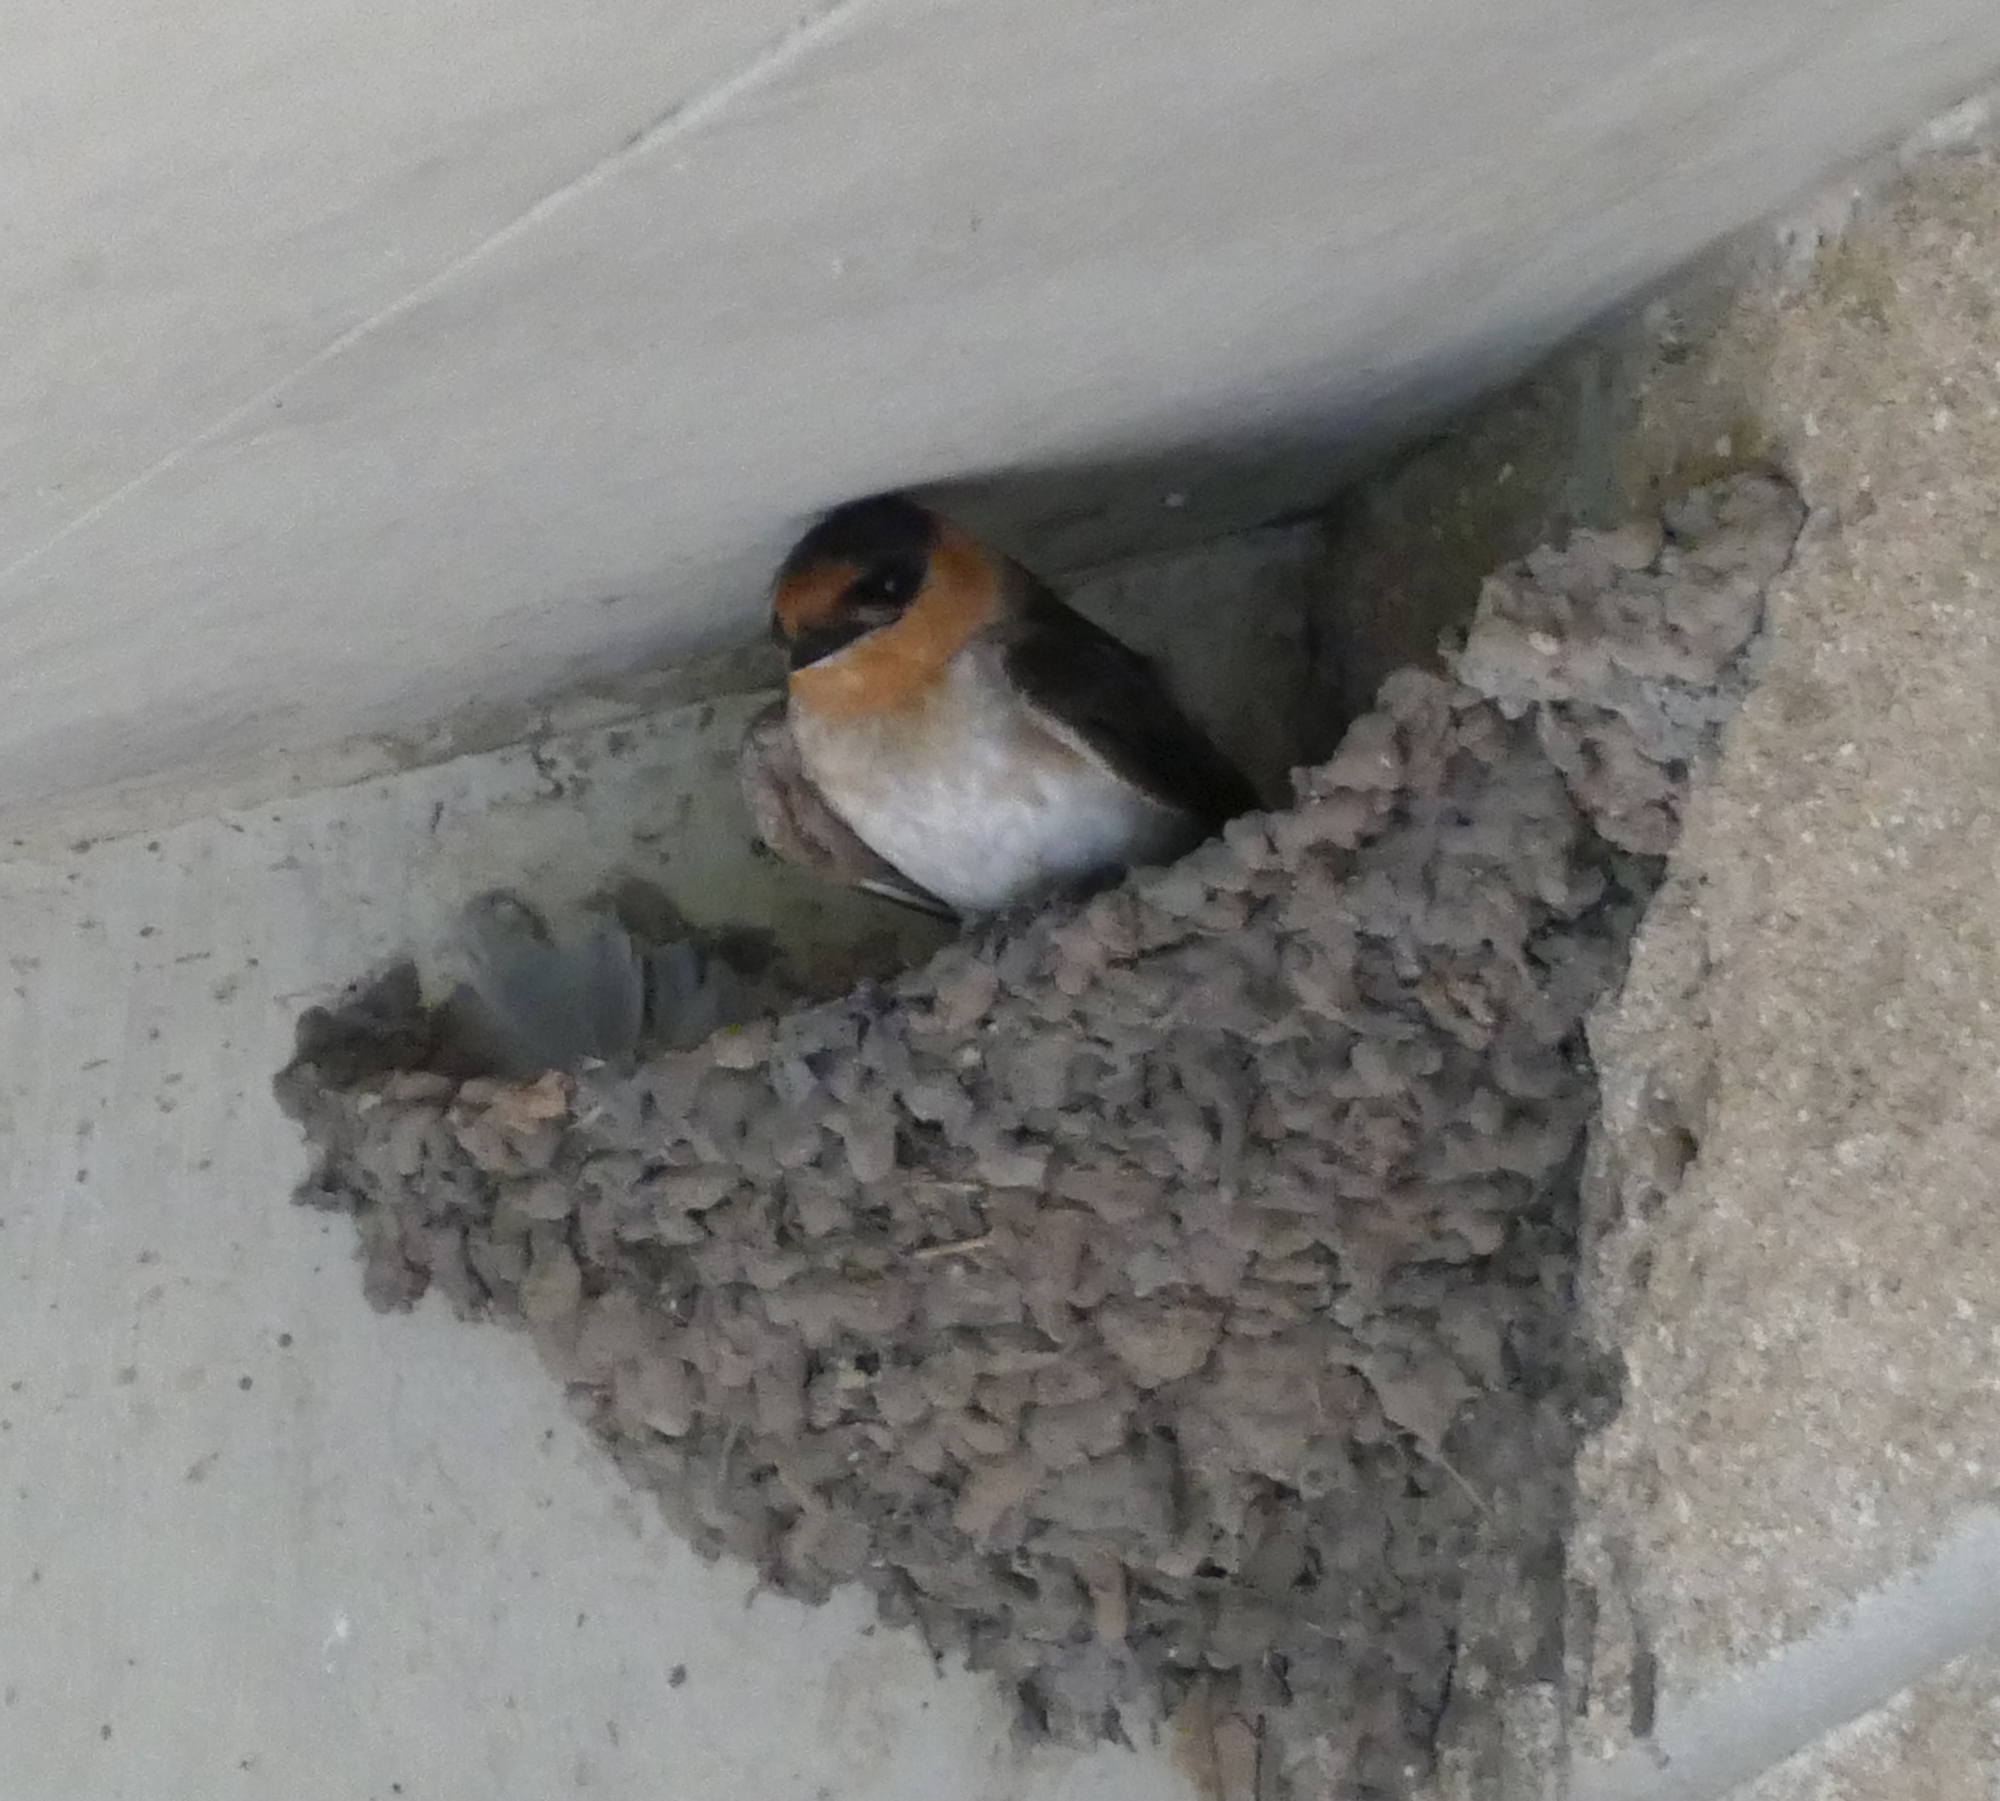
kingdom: Animalia
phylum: Chordata
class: Aves
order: Passeriformes
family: Hirundinidae
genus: Petrochelidon
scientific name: Petrochelidon fulva
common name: Cave swallow
